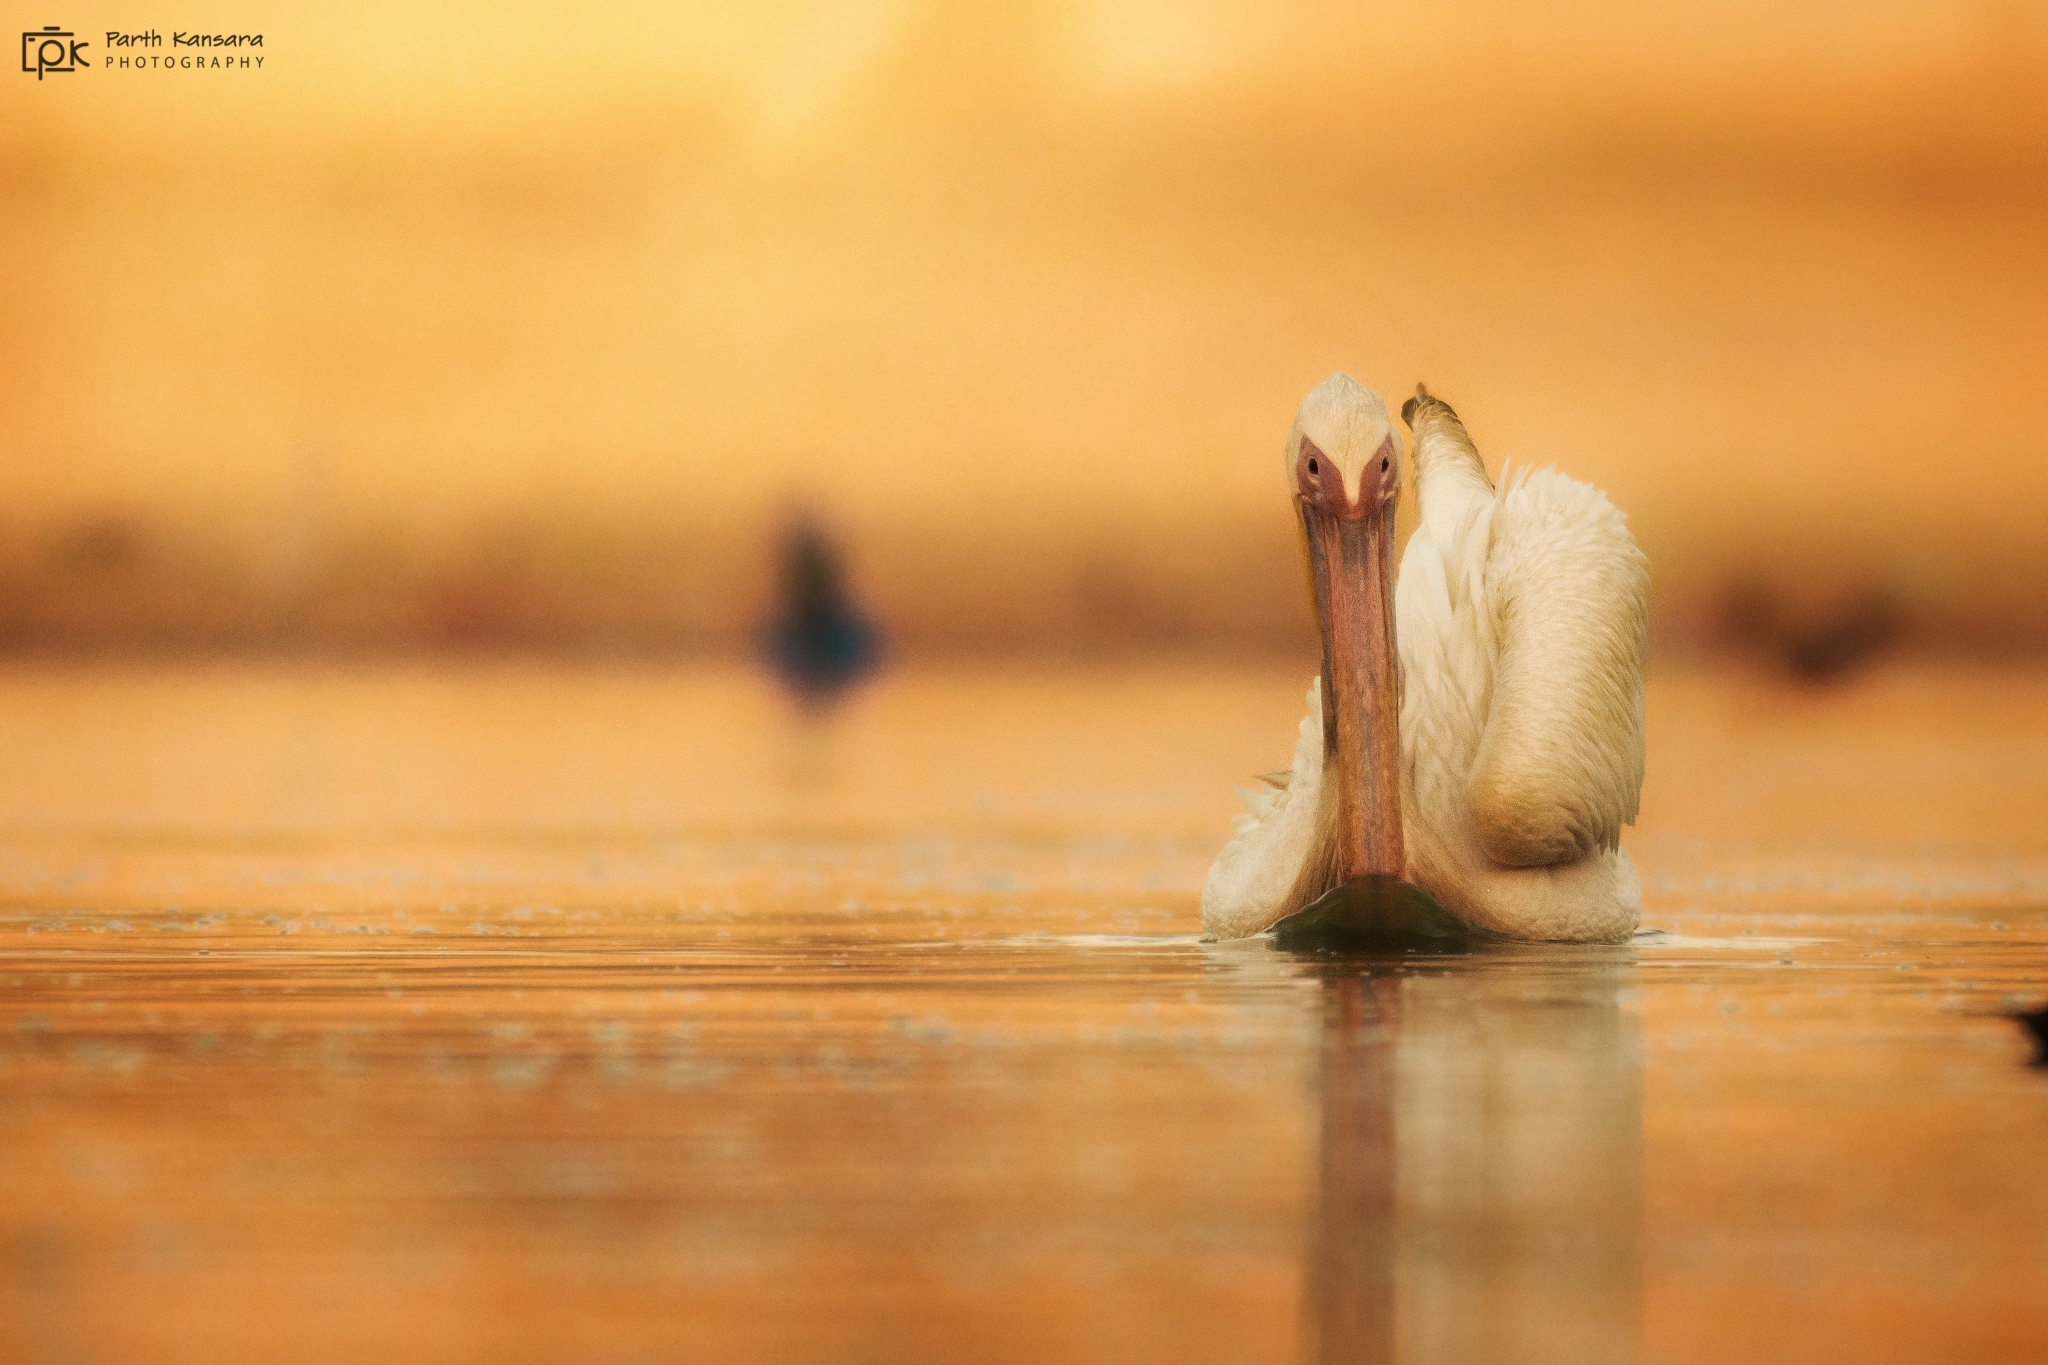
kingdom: Animalia
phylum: Chordata
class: Aves
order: Pelecaniformes
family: Pelecanidae
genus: Pelecanus
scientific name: Pelecanus crispus
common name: Dalmatian pelican
